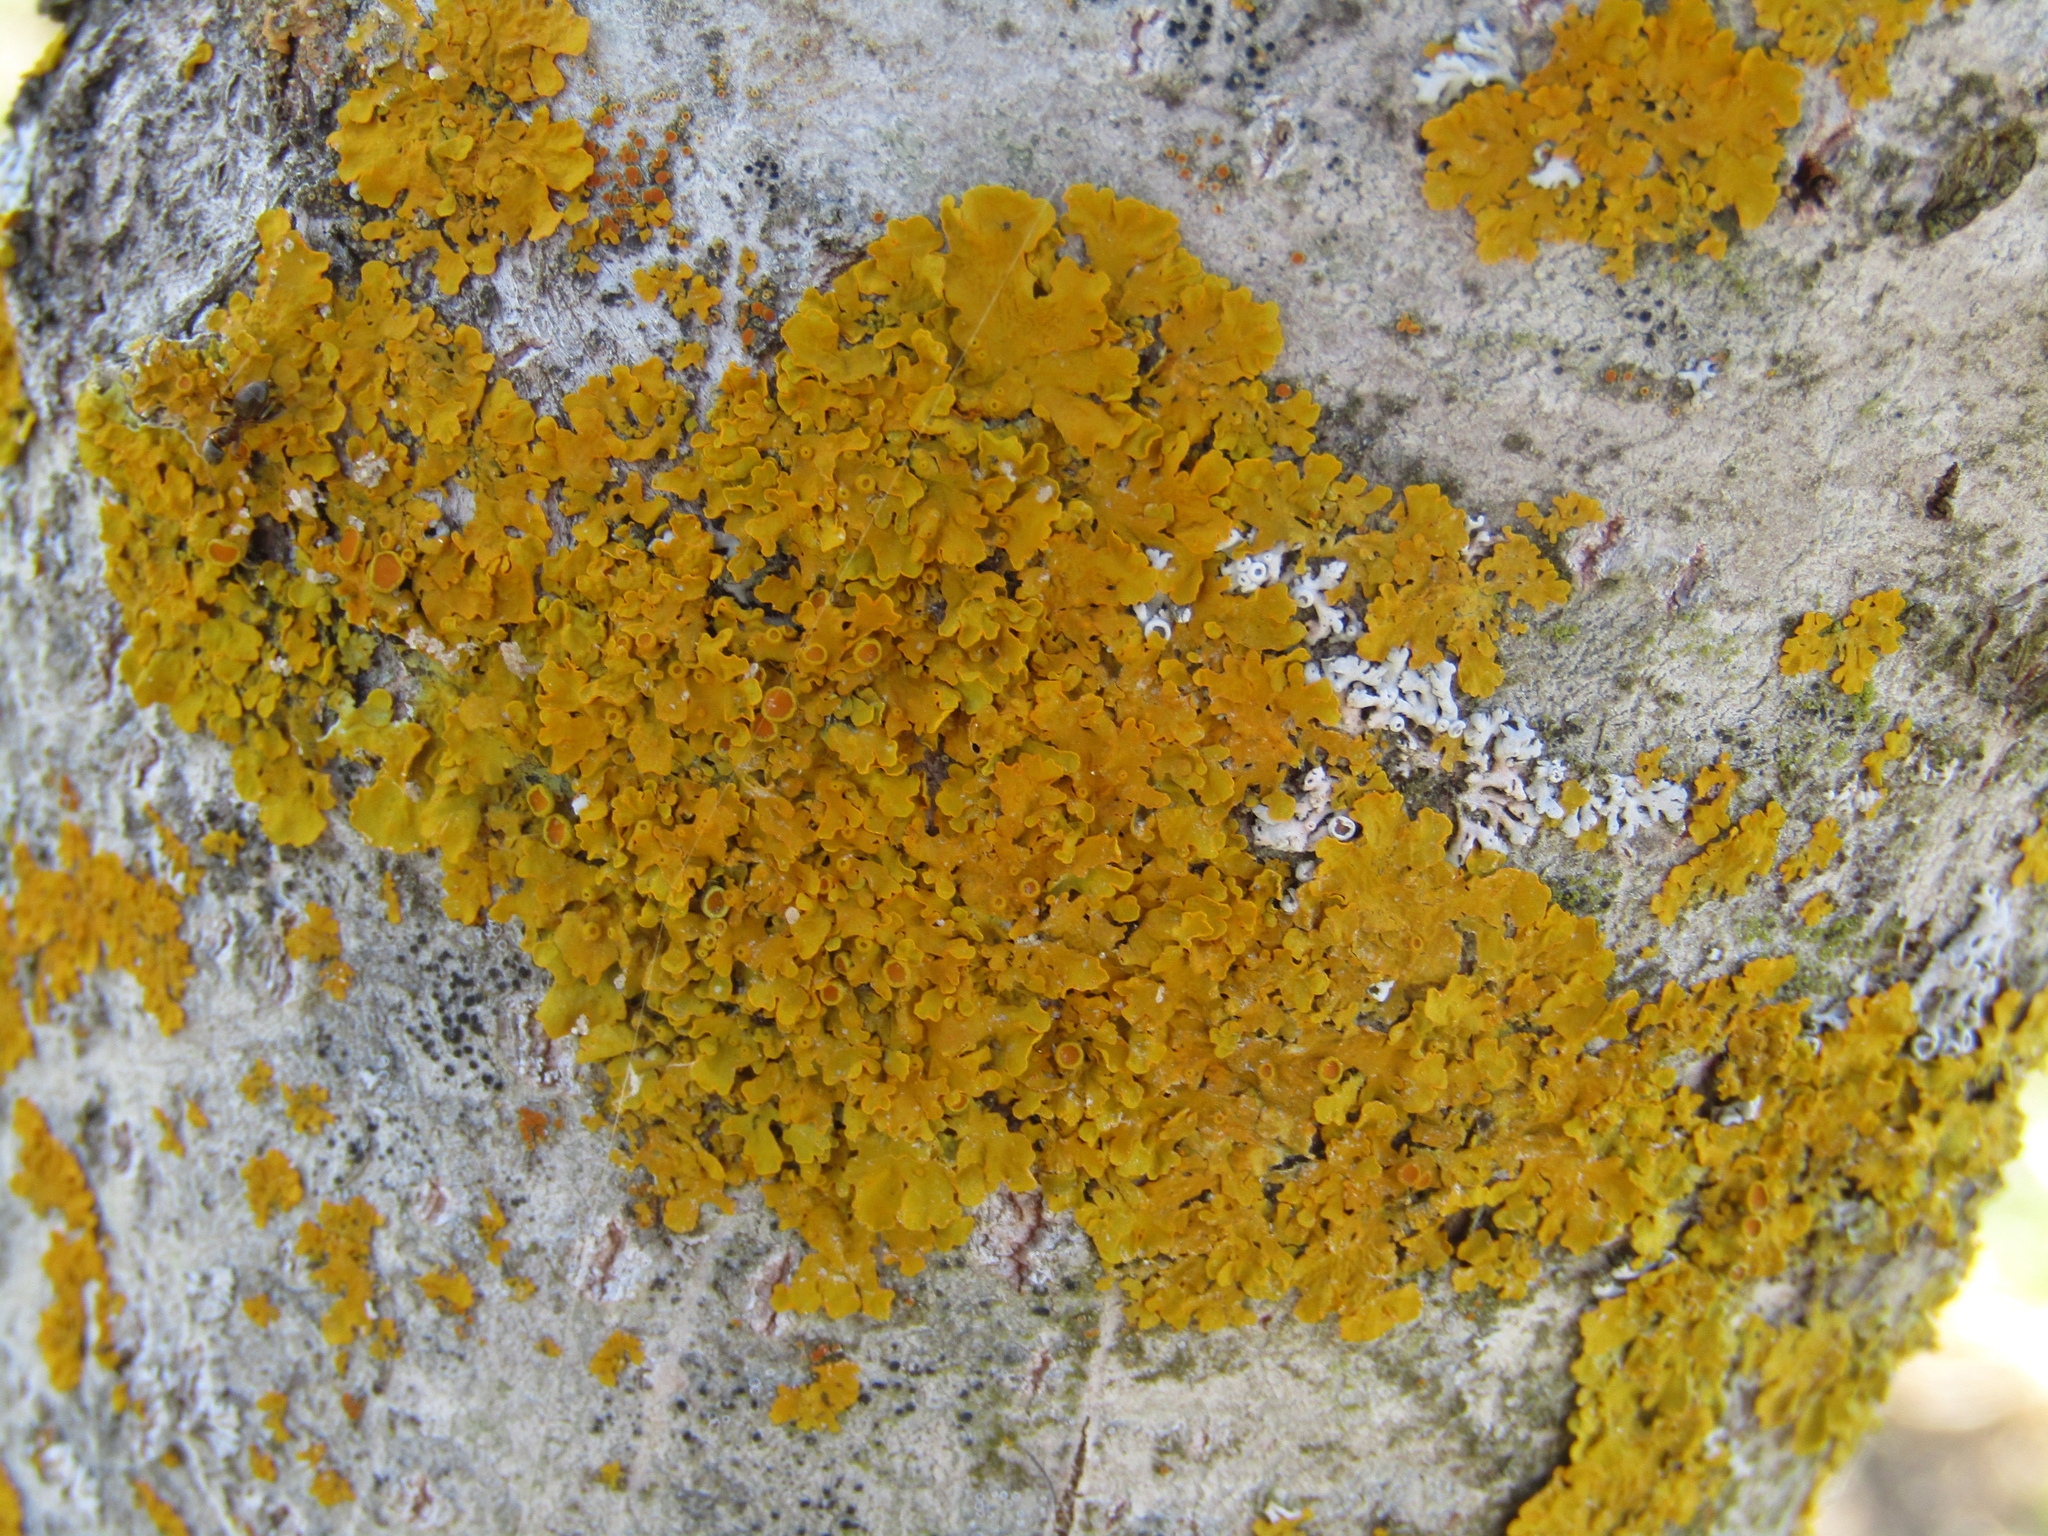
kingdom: Fungi
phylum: Ascomycota
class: Lecanoromycetes
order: Teloschistales
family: Teloschistaceae
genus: Xanthoria
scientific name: Xanthoria parietina
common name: Common orange lichen
